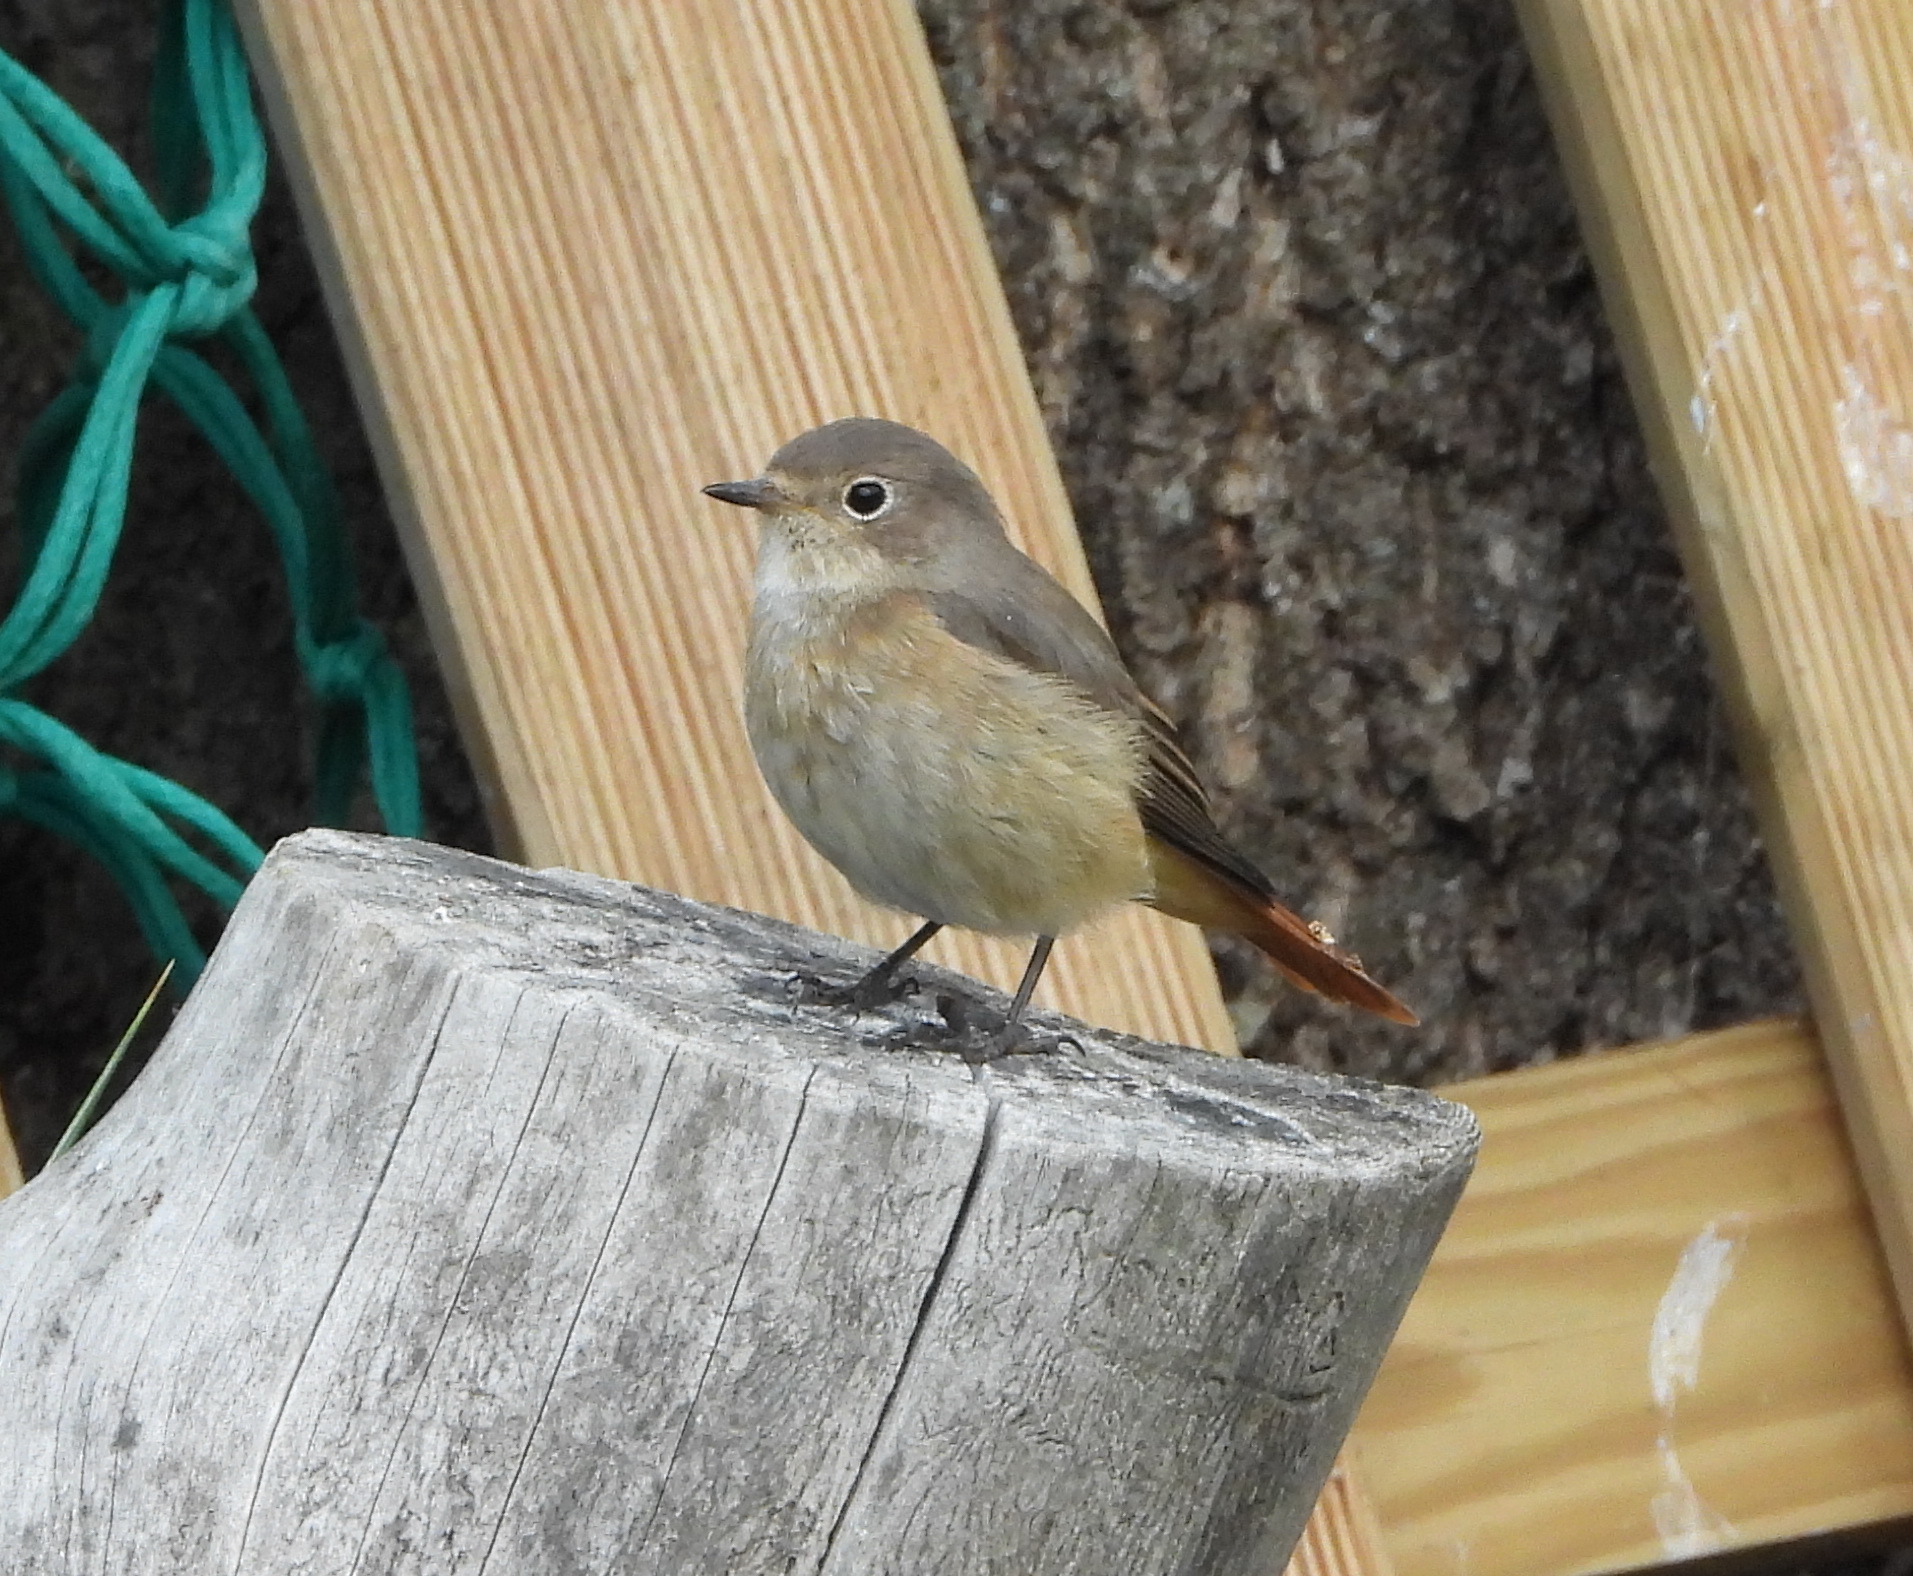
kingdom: Animalia
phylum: Chordata
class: Aves
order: Passeriformes
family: Muscicapidae
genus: Phoenicurus
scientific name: Phoenicurus phoenicurus
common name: Common redstart
